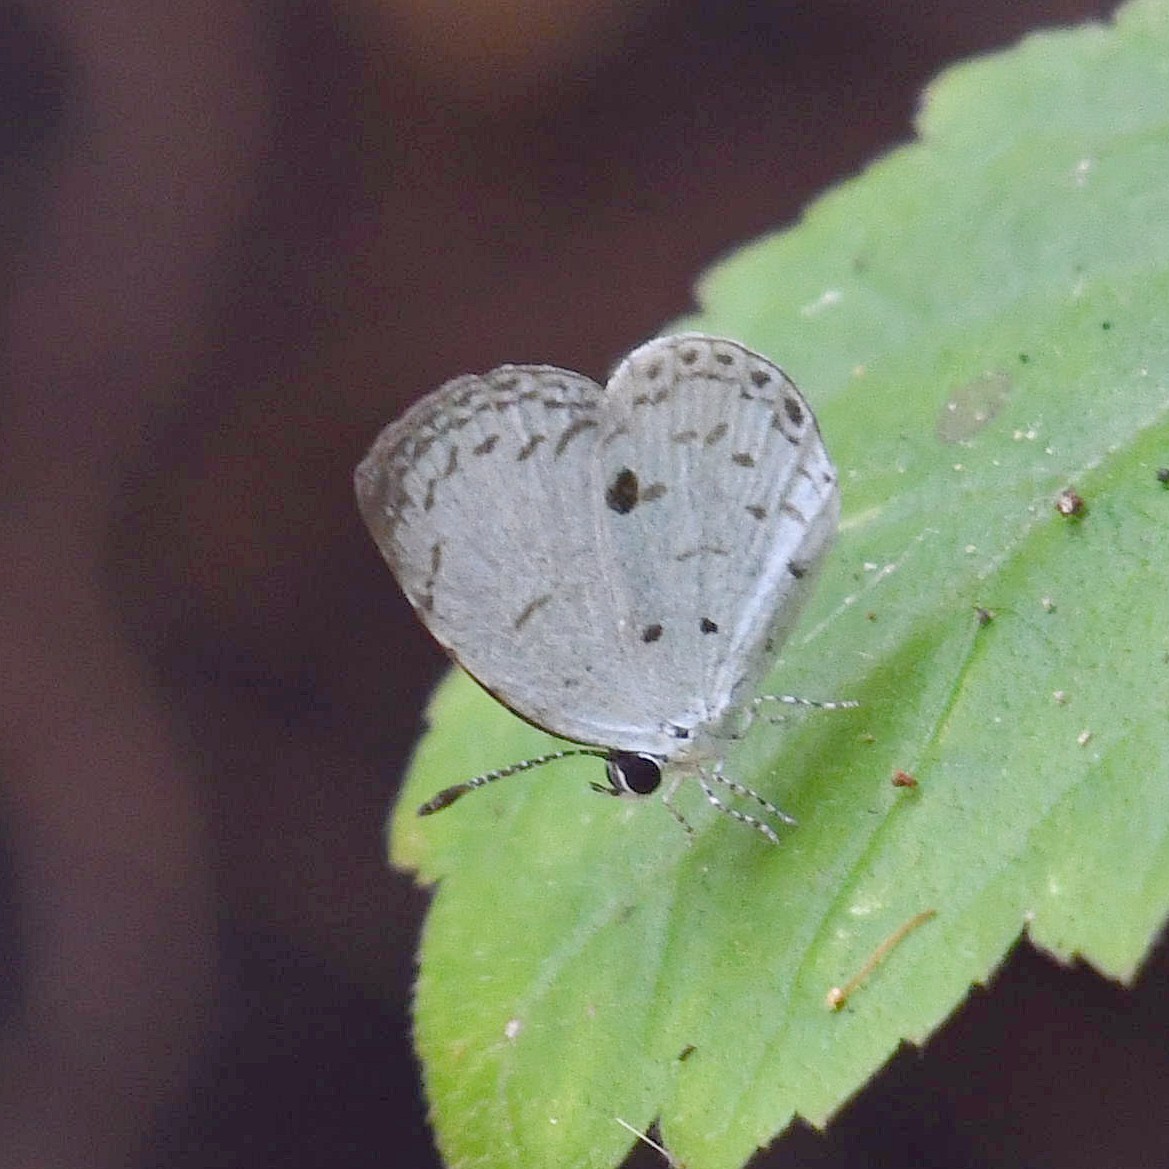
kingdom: Animalia
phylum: Arthropoda
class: Insecta
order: Lepidoptera
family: Lycaenidae
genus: Neopithecops
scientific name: Neopithecops zalmora
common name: Quaker
